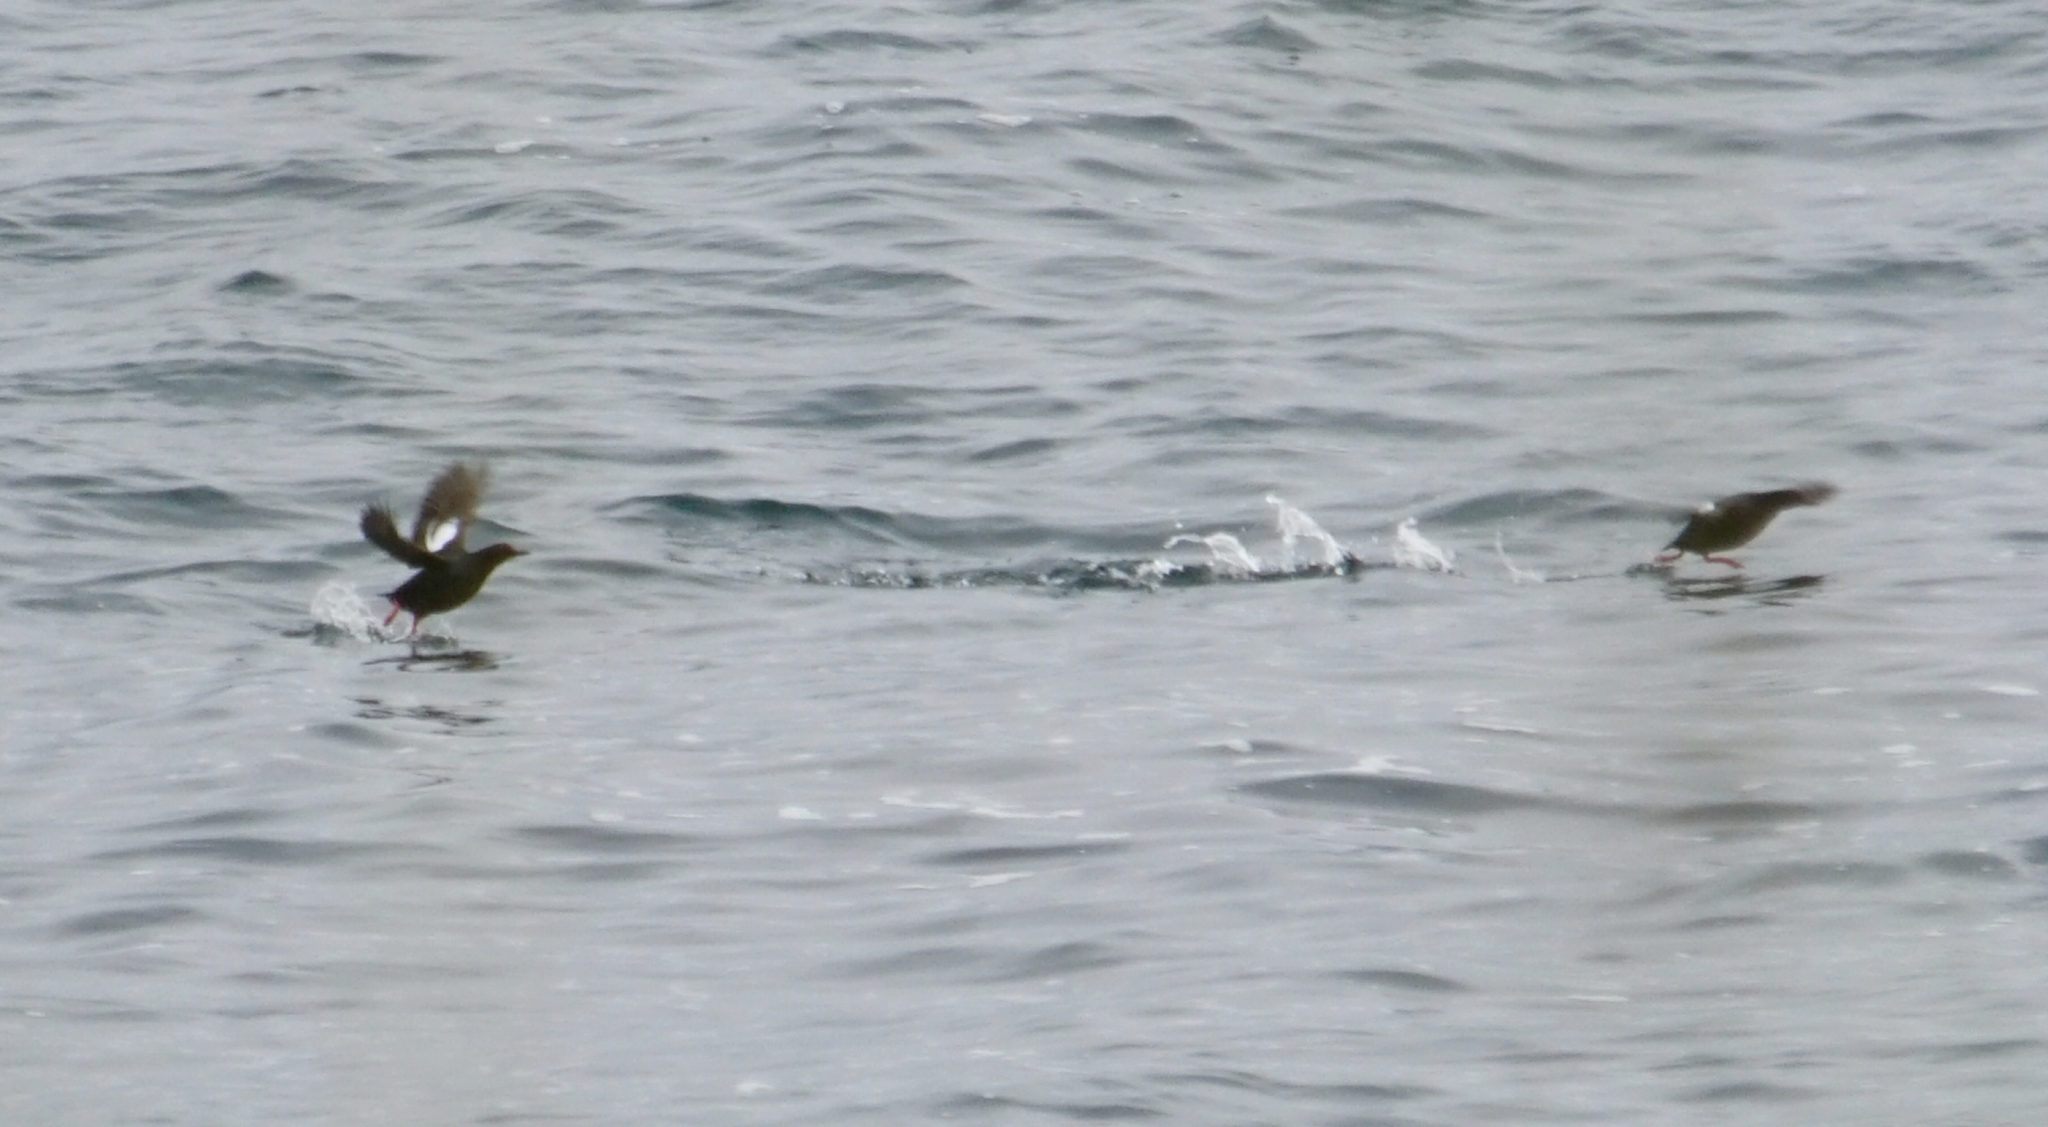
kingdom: Animalia
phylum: Chordata
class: Aves
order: Charadriiformes
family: Alcidae
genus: Cepphus
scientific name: Cepphus columba
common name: Pigeon guillemot
